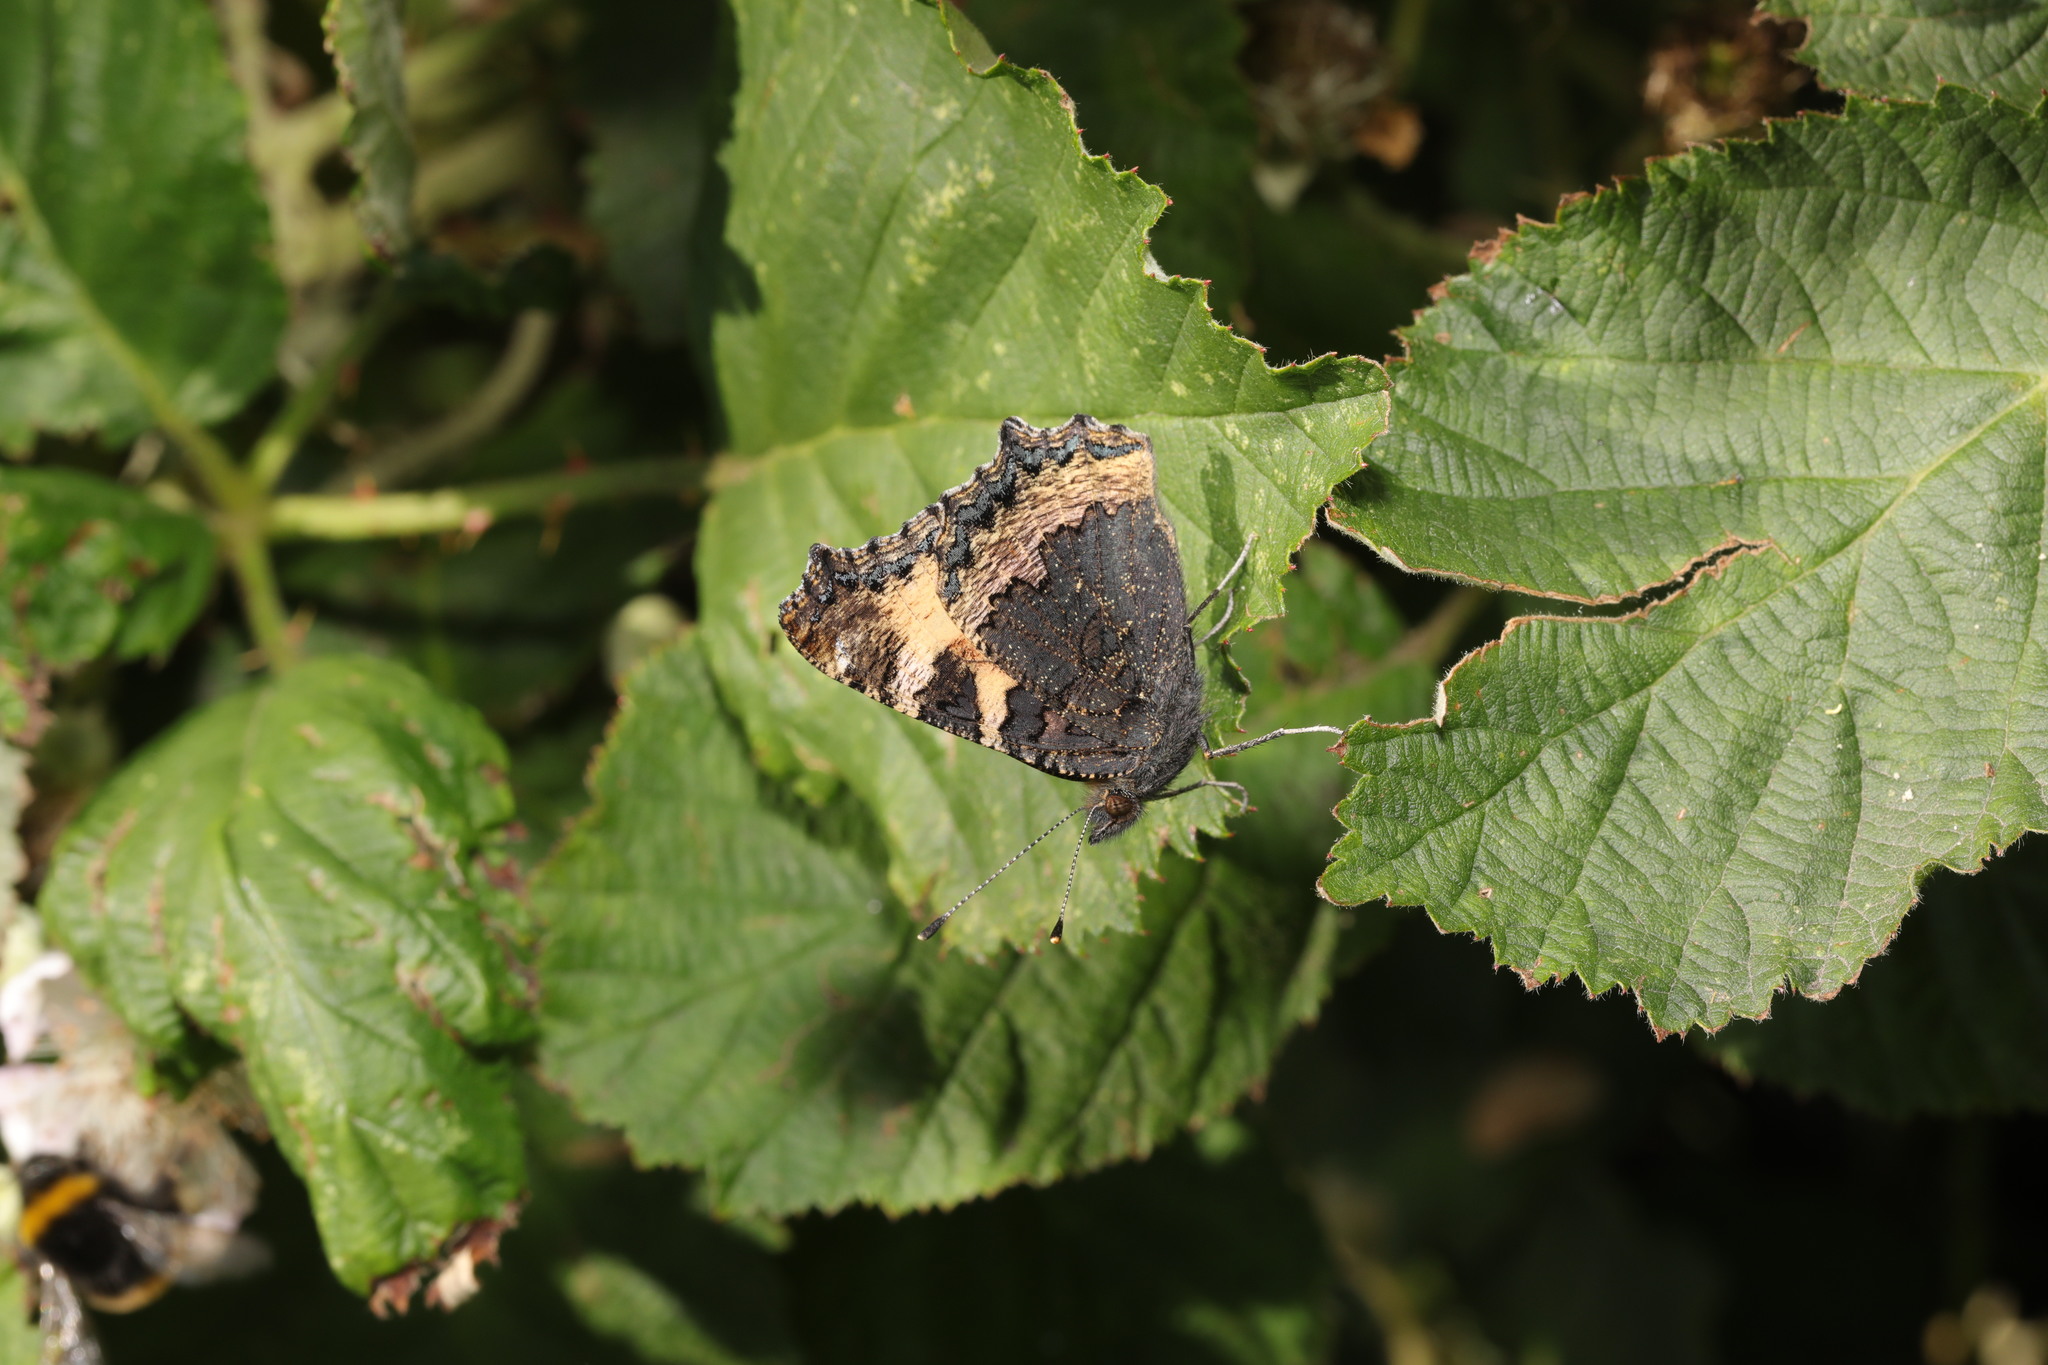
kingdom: Animalia
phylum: Arthropoda
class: Insecta
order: Lepidoptera
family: Nymphalidae
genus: Aglais
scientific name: Aglais urticae
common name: Small tortoiseshell
